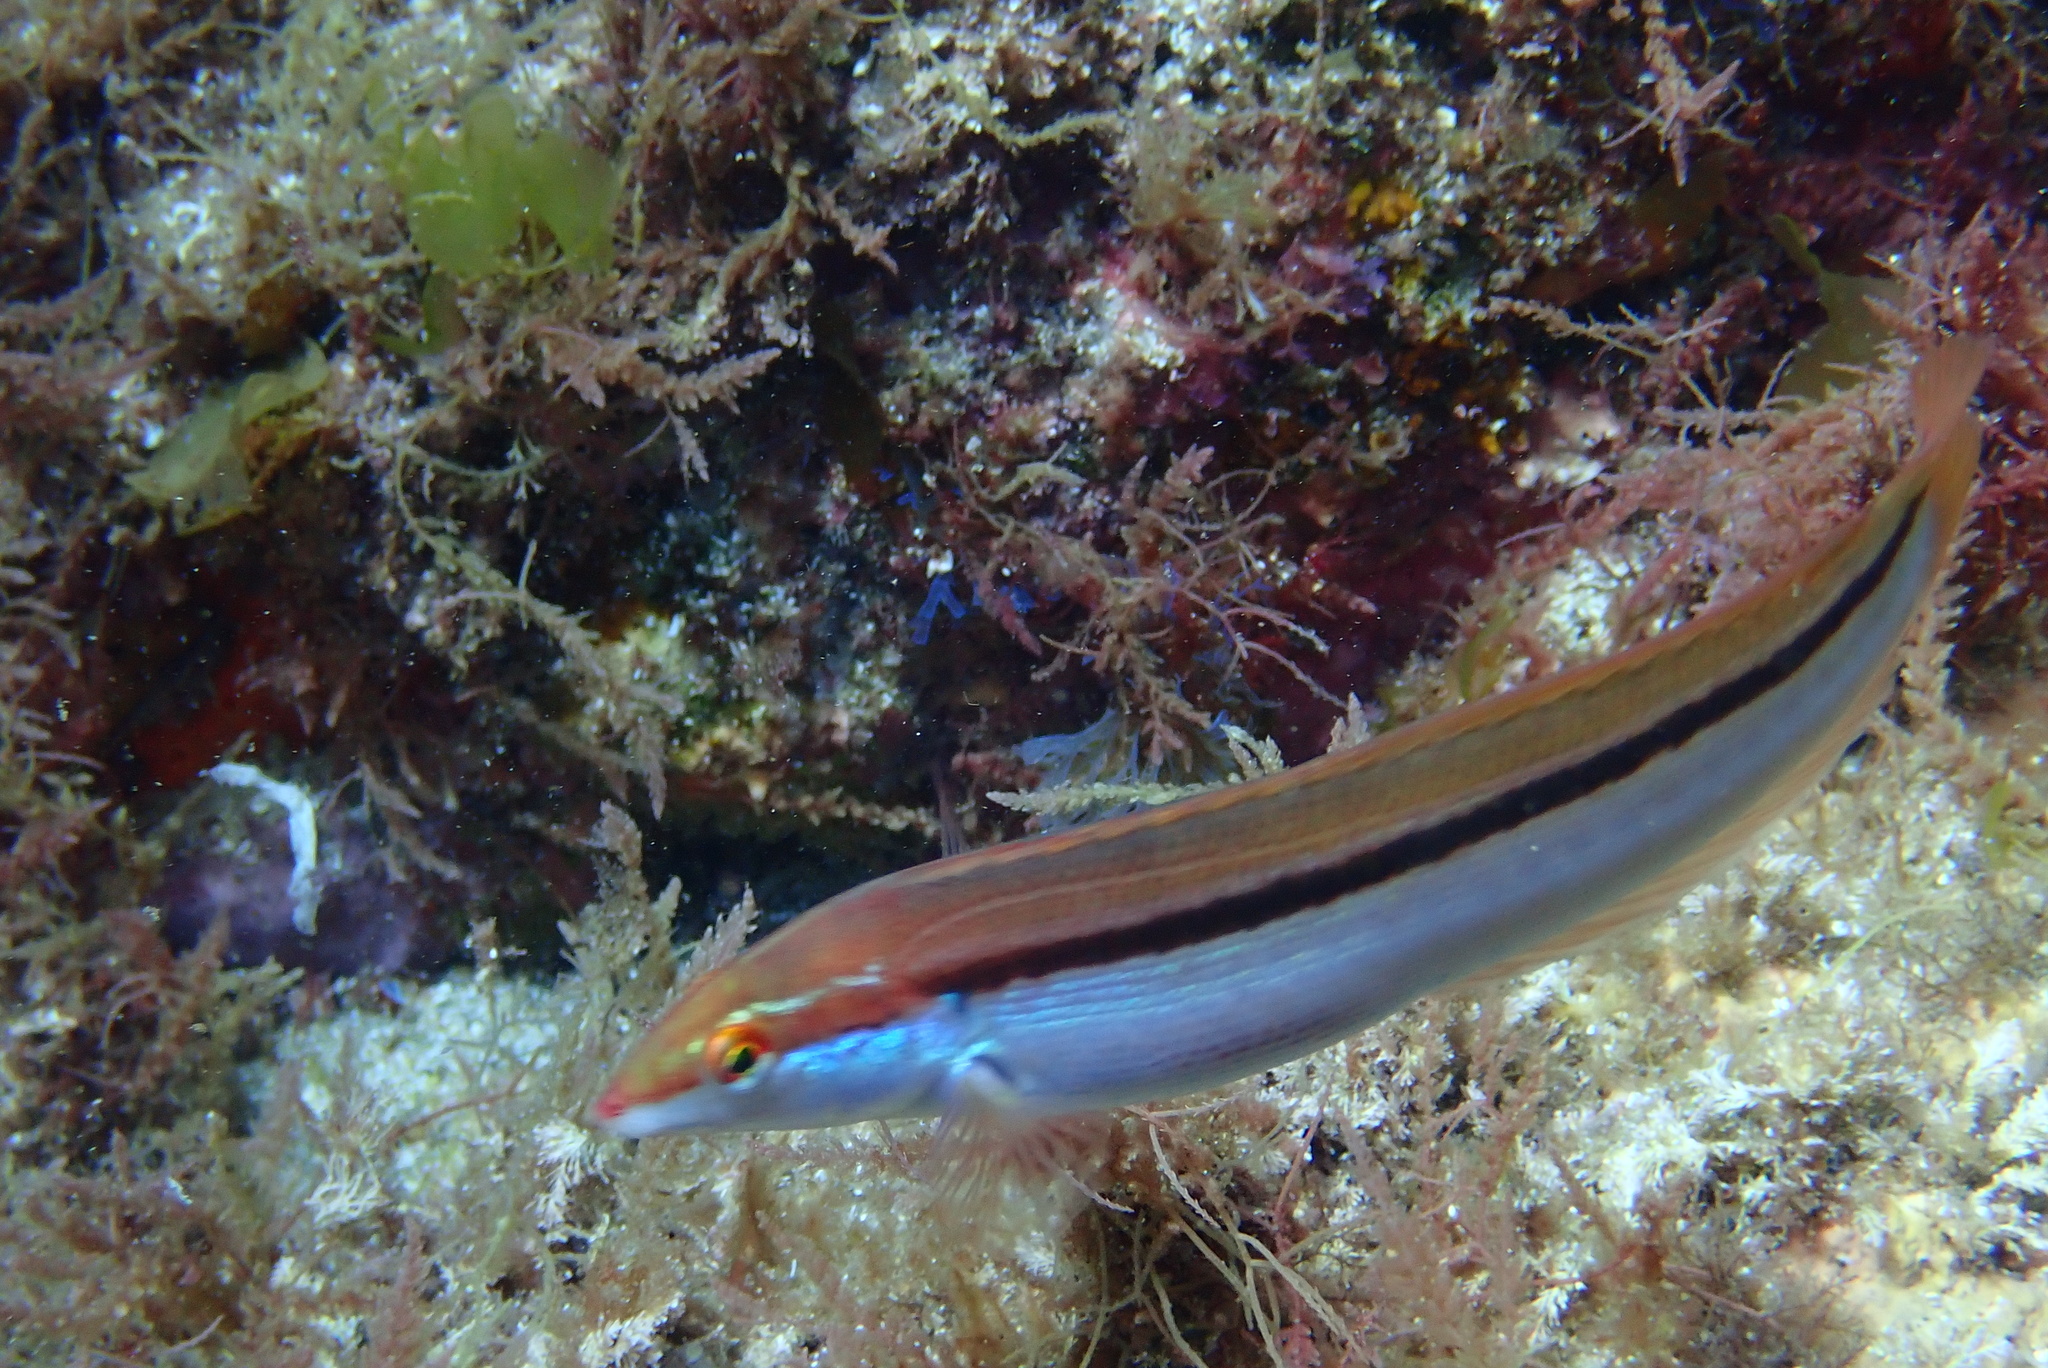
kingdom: Animalia
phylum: Chordata
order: Perciformes
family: Labridae
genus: Coris
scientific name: Coris
